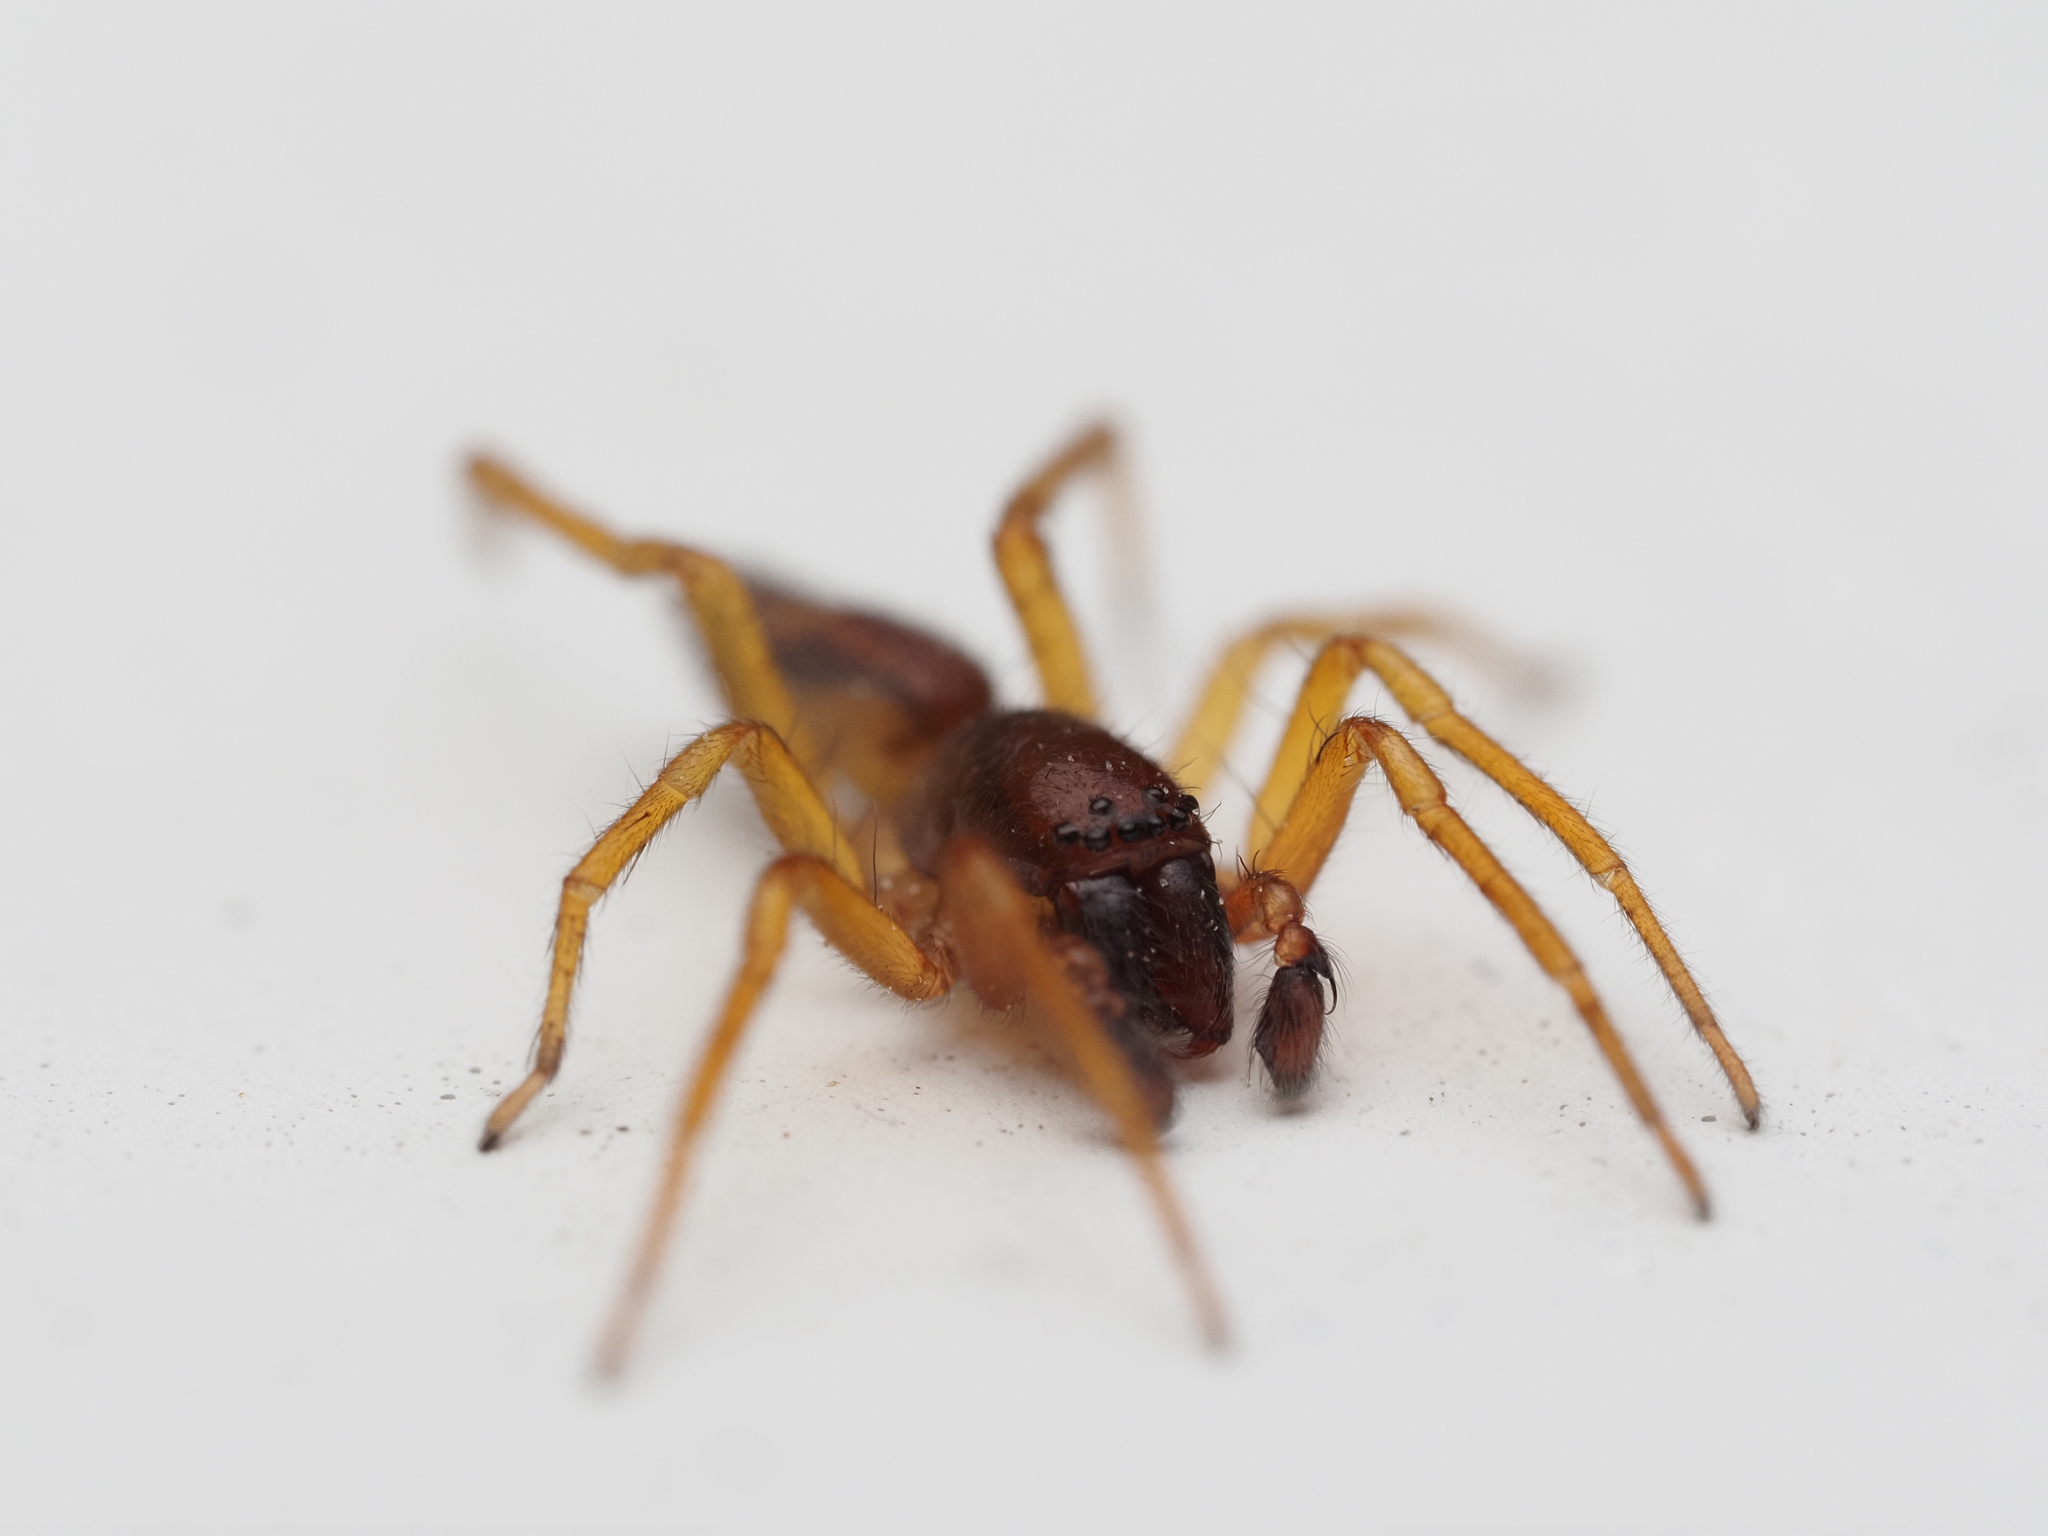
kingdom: Animalia
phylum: Arthropoda
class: Arachnida
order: Araneae
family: Clubionidae
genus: Clubiona
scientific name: Clubiona comta
